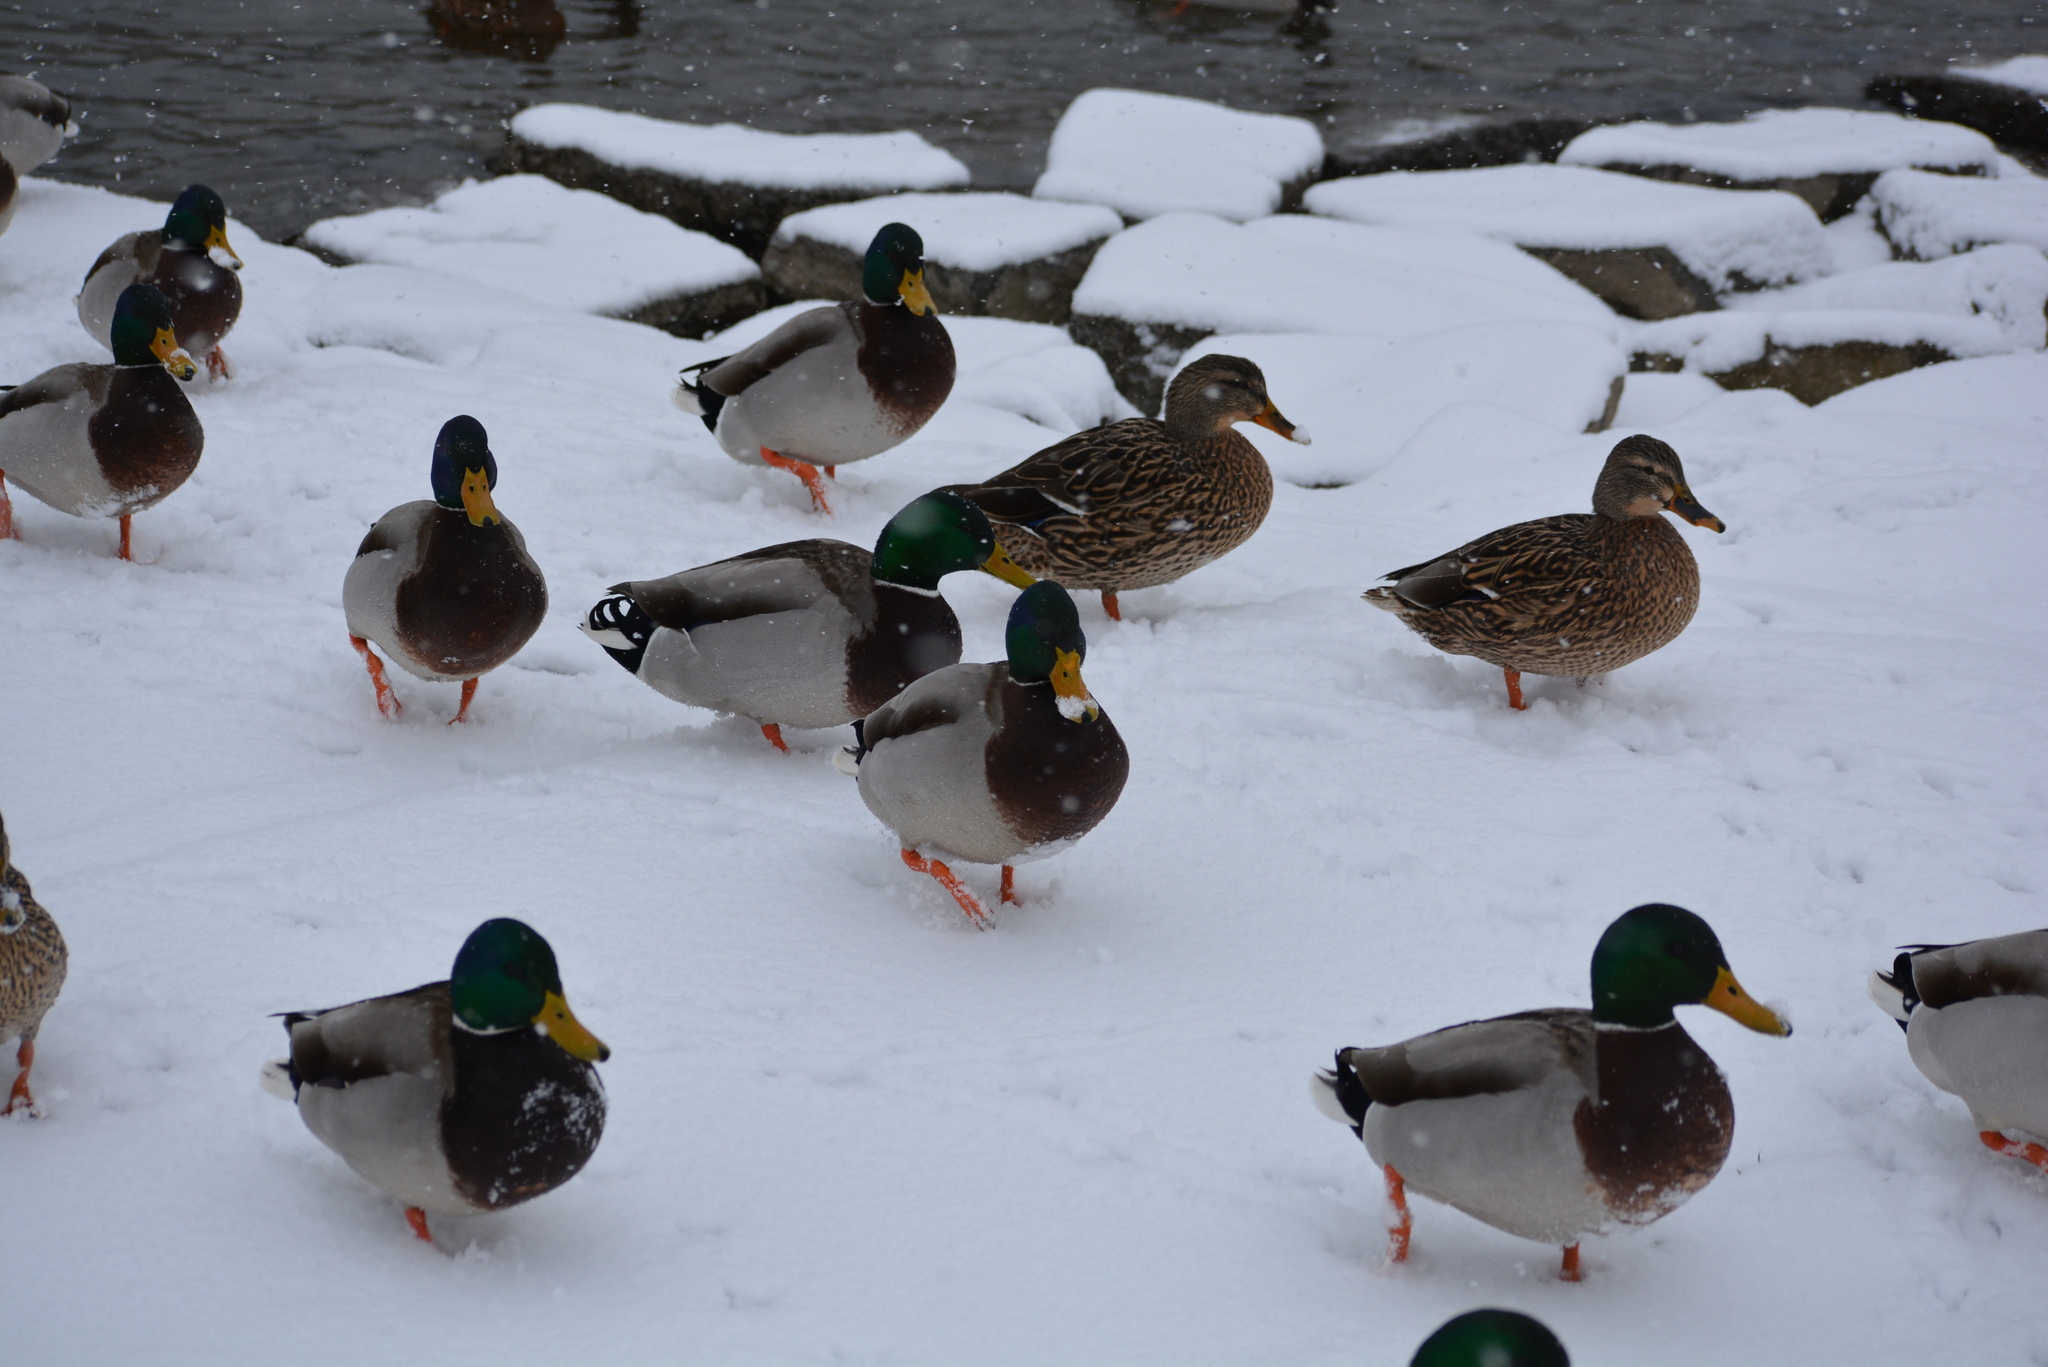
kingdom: Animalia
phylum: Chordata
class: Aves
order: Anseriformes
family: Anatidae
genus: Anas
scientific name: Anas platyrhynchos
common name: Mallard
